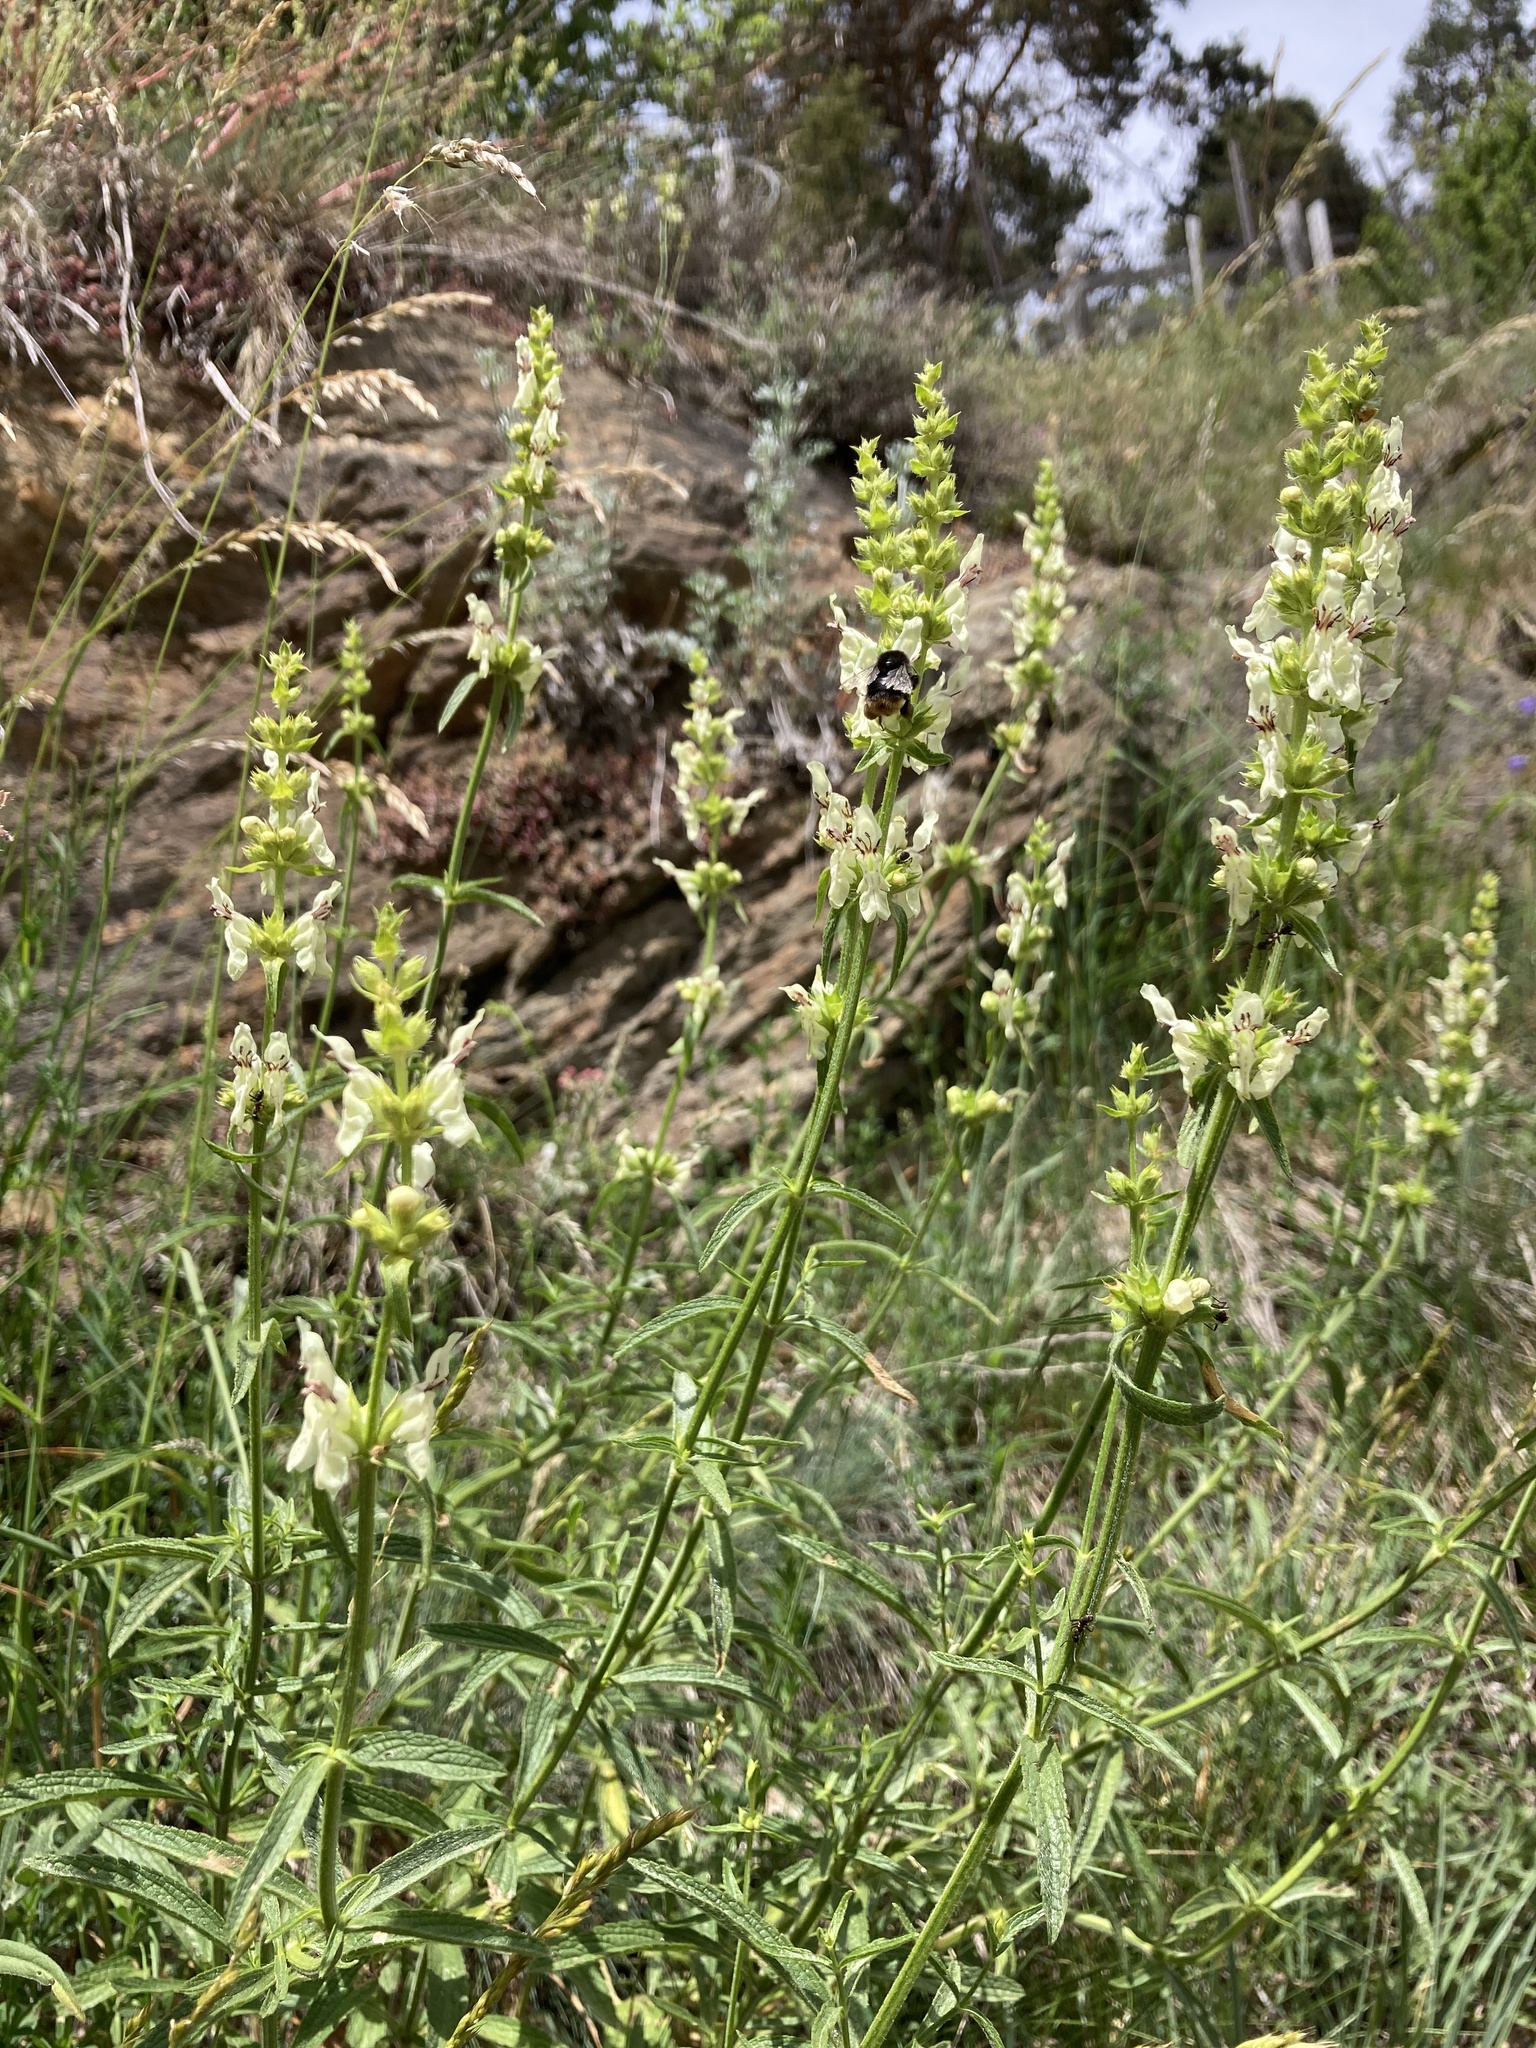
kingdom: Plantae
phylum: Tracheophyta
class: Magnoliopsida
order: Lamiales
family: Lamiaceae
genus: Stachys
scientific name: Stachys recta
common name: Perennial yellow-woundwort
